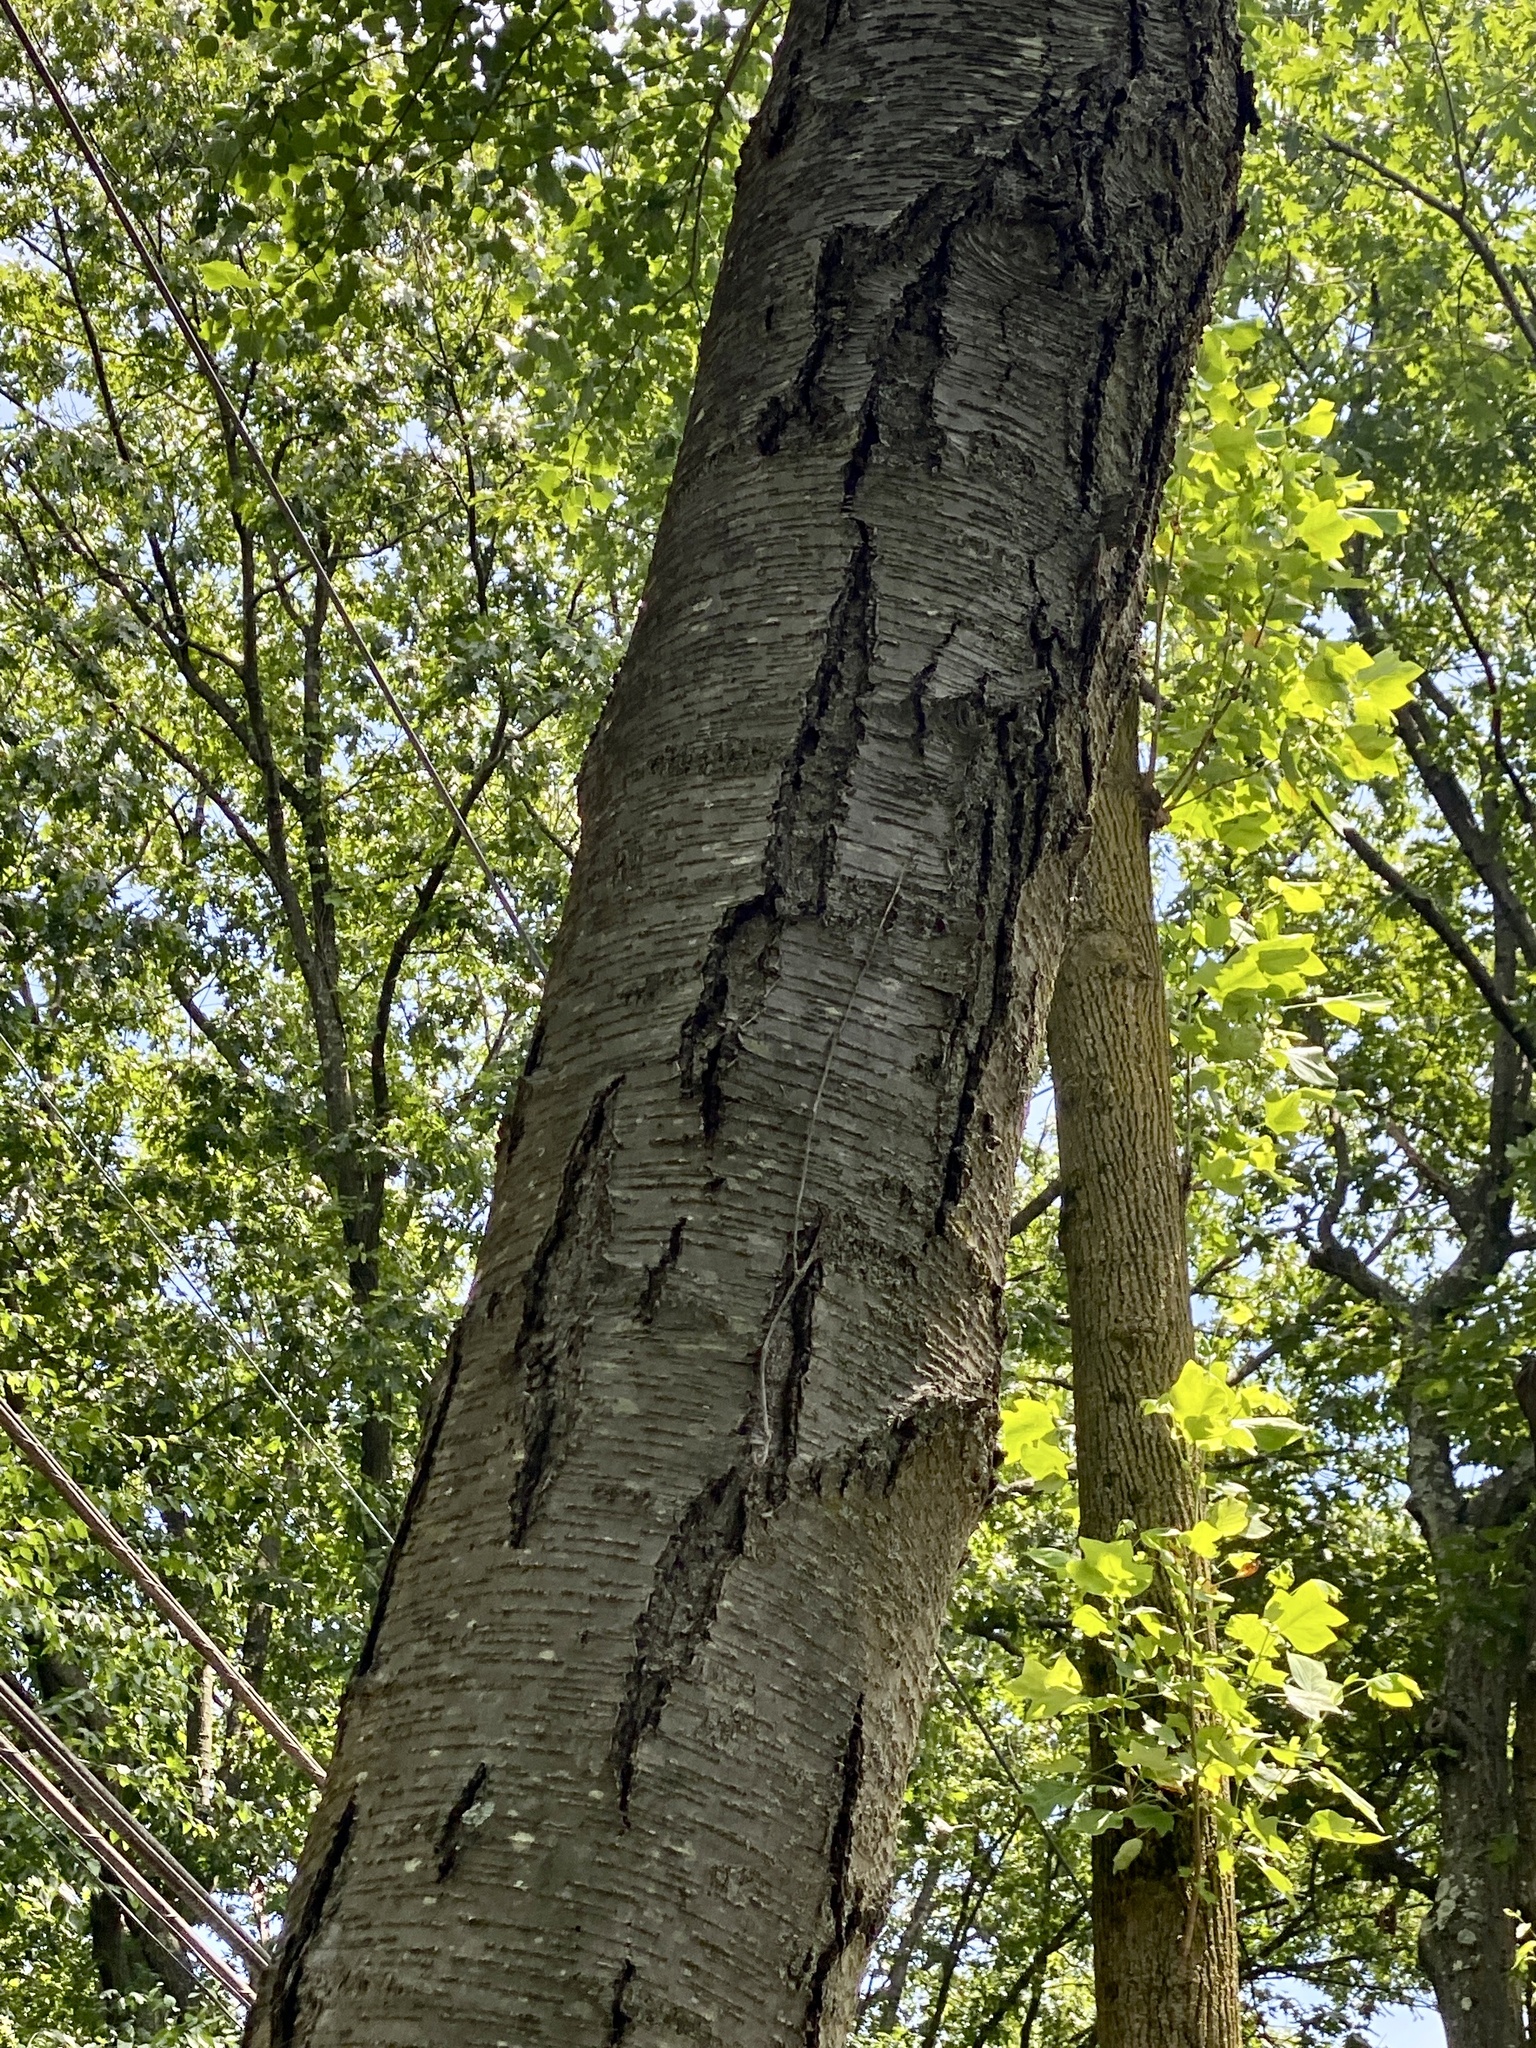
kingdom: Plantae
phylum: Tracheophyta
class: Magnoliopsida
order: Fagales
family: Betulaceae
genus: Betula
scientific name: Betula lenta
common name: Black birch
